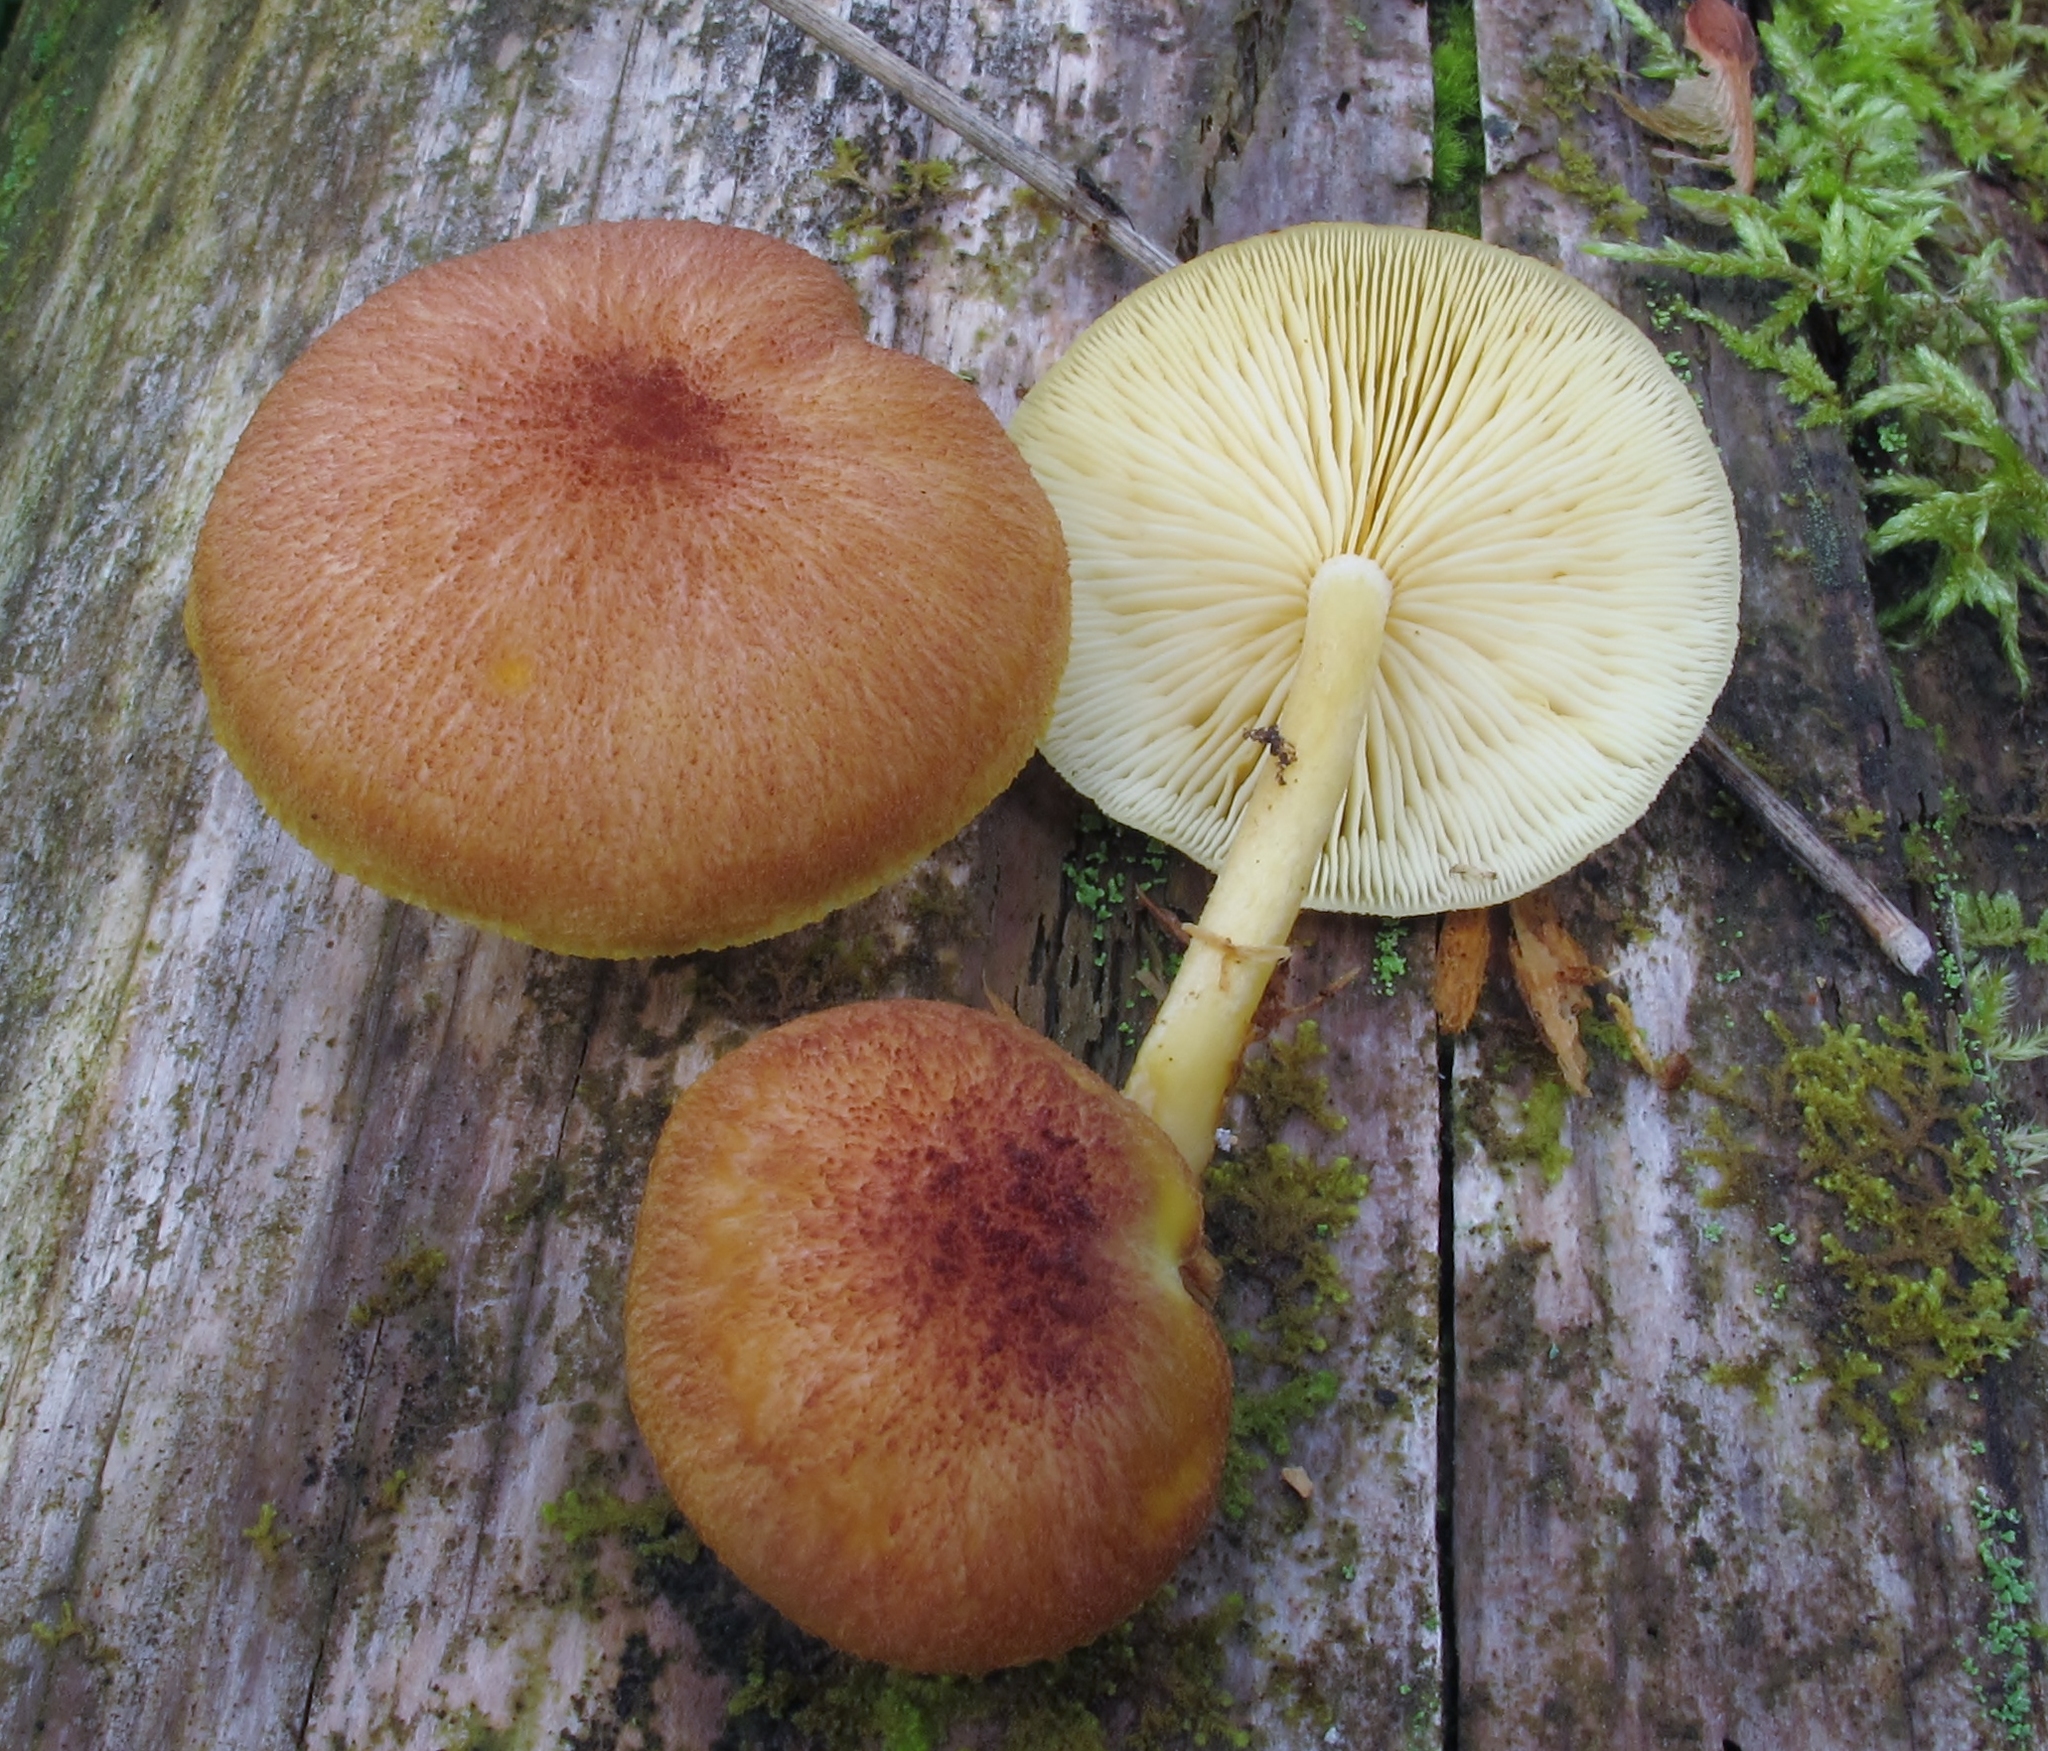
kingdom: Fungi
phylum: Basidiomycota
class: Agaricomycetes
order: Agaricales
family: Tricholomataceae
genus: Tricholomopsis
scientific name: Tricholomopsis flammula
